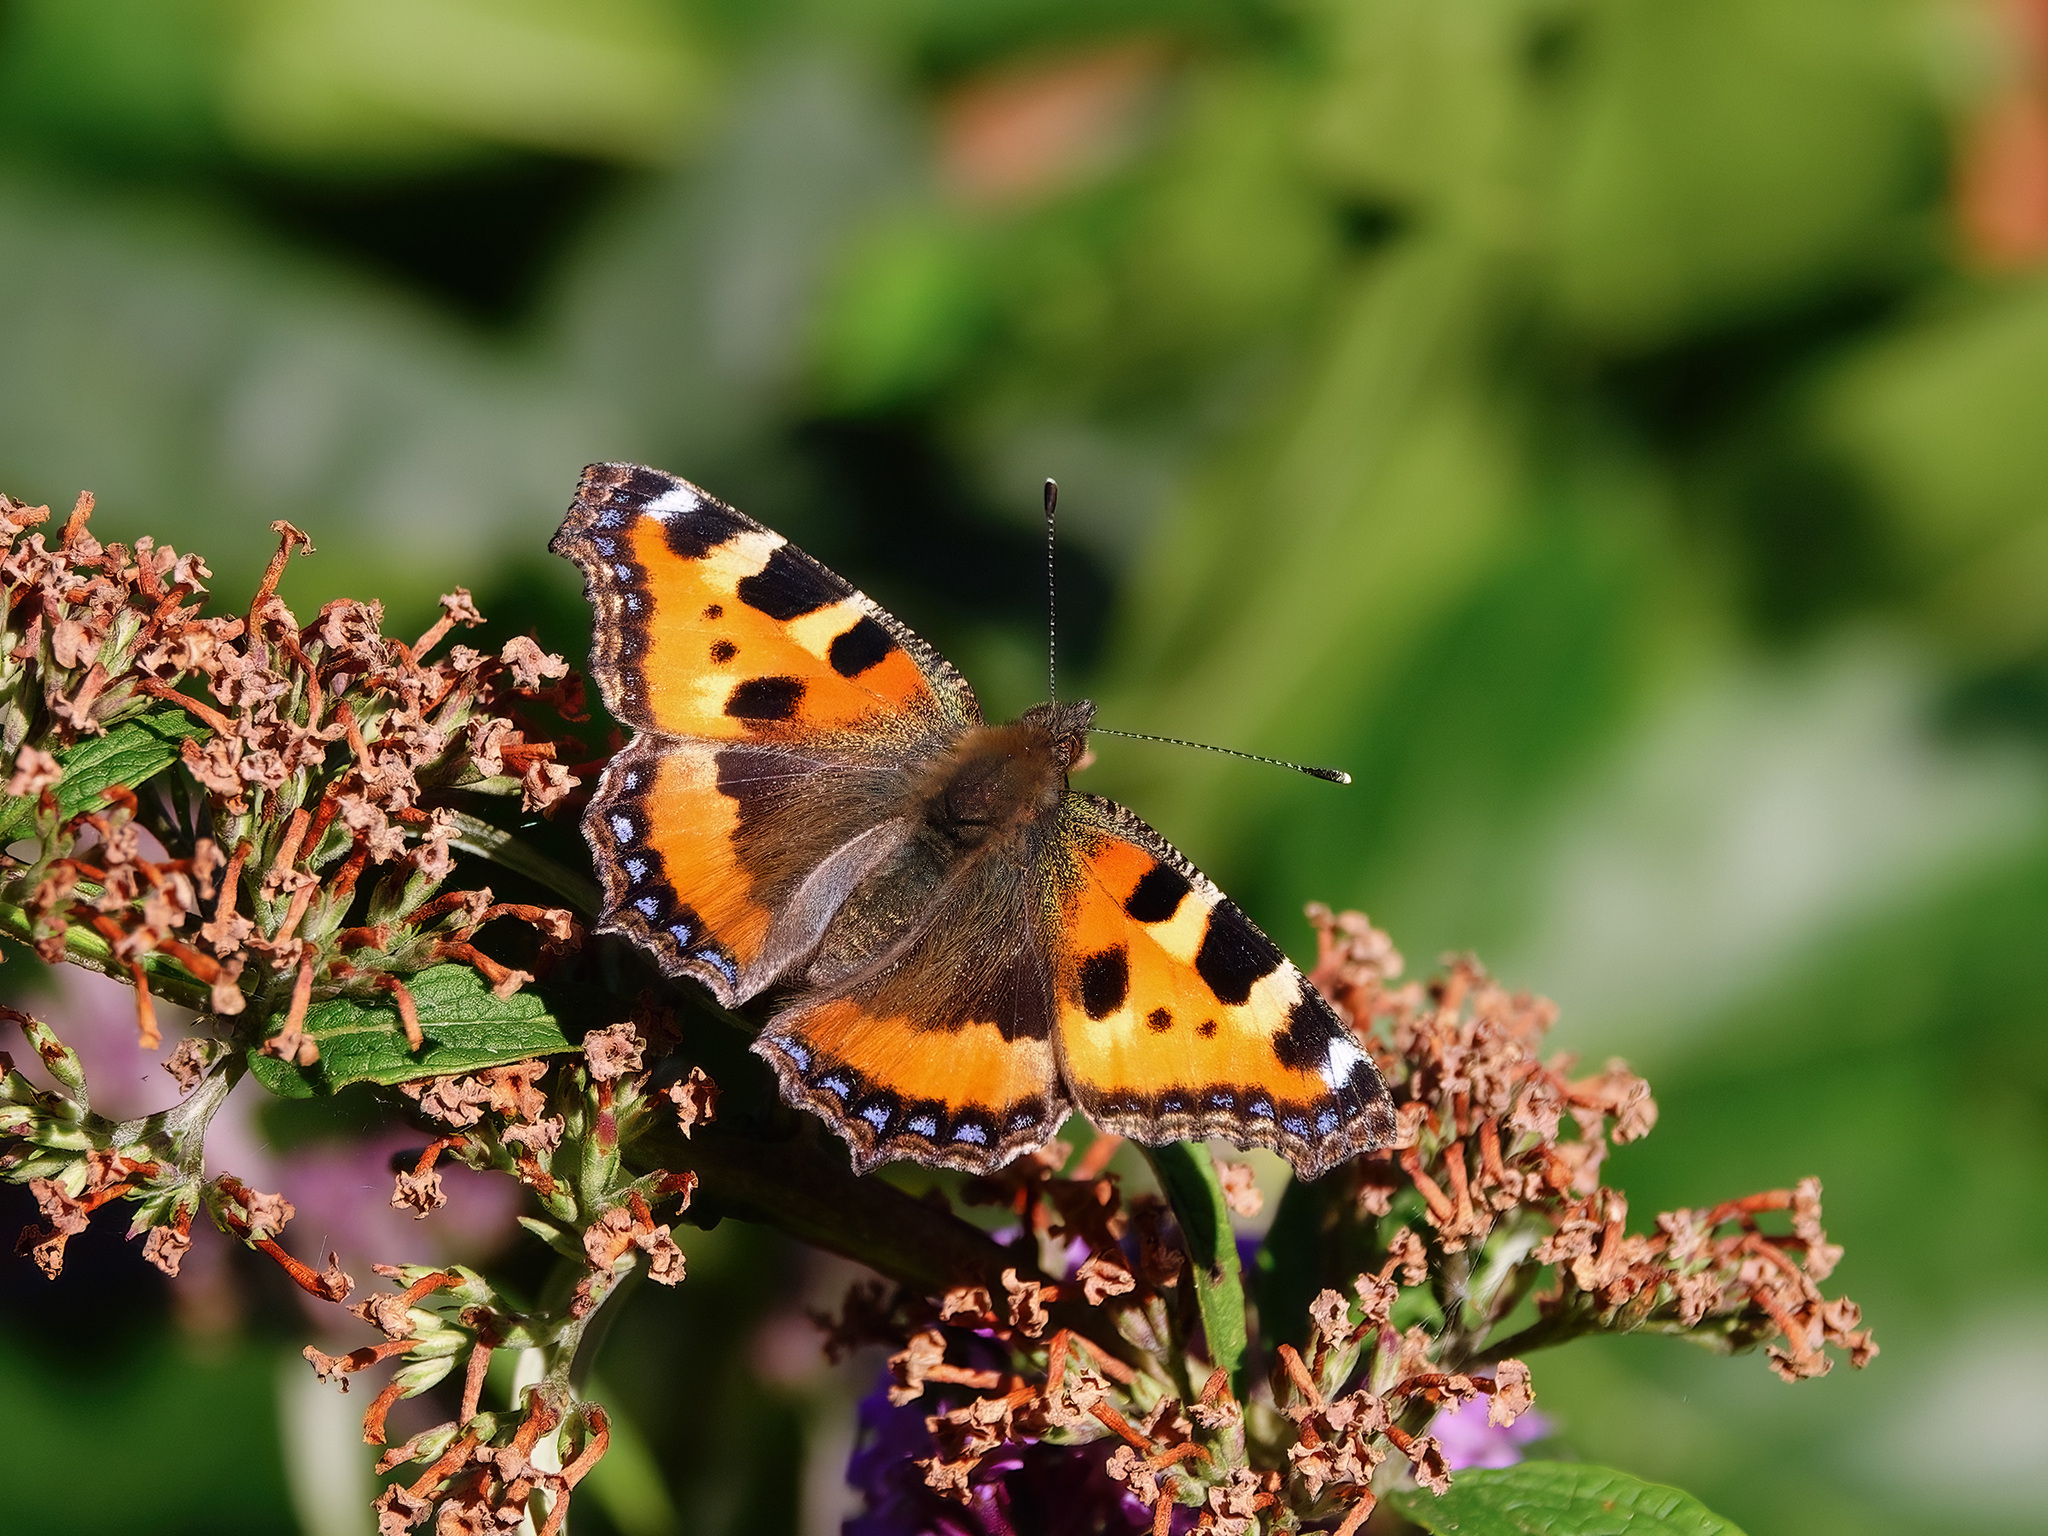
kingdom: Animalia
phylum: Arthropoda
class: Insecta
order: Lepidoptera
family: Nymphalidae
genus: Aglais
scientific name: Aglais urticae
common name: Small tortoiseshell
